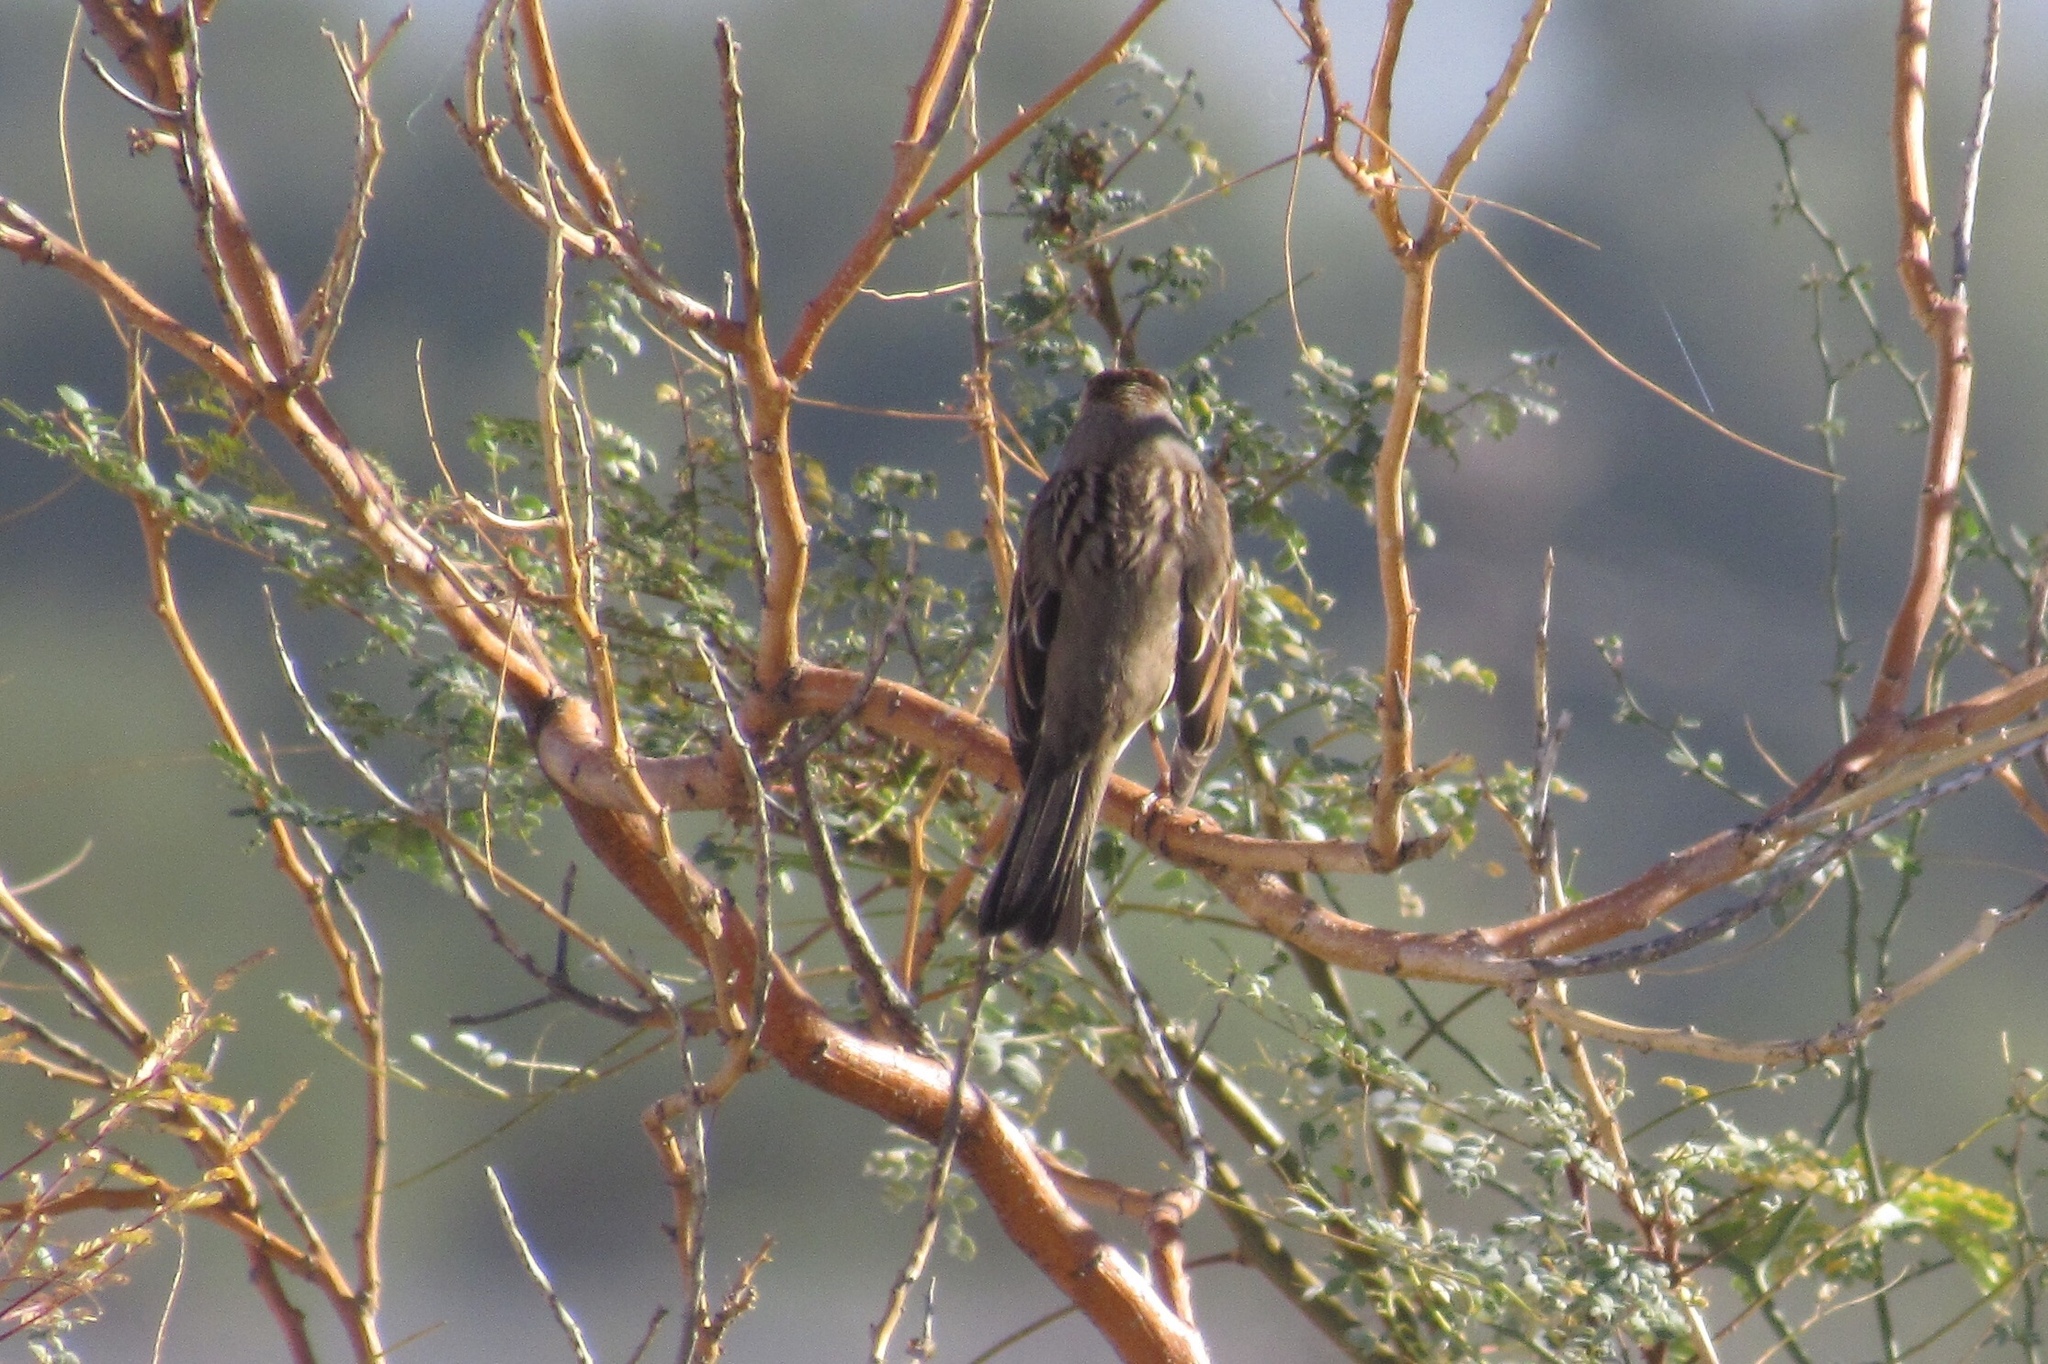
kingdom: Animalia
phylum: Chordata
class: Aves
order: Passeriformes
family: Passerellidae
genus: Zonotrichia
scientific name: Zonotrichia leucophrys
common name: White-crowned sparrow
